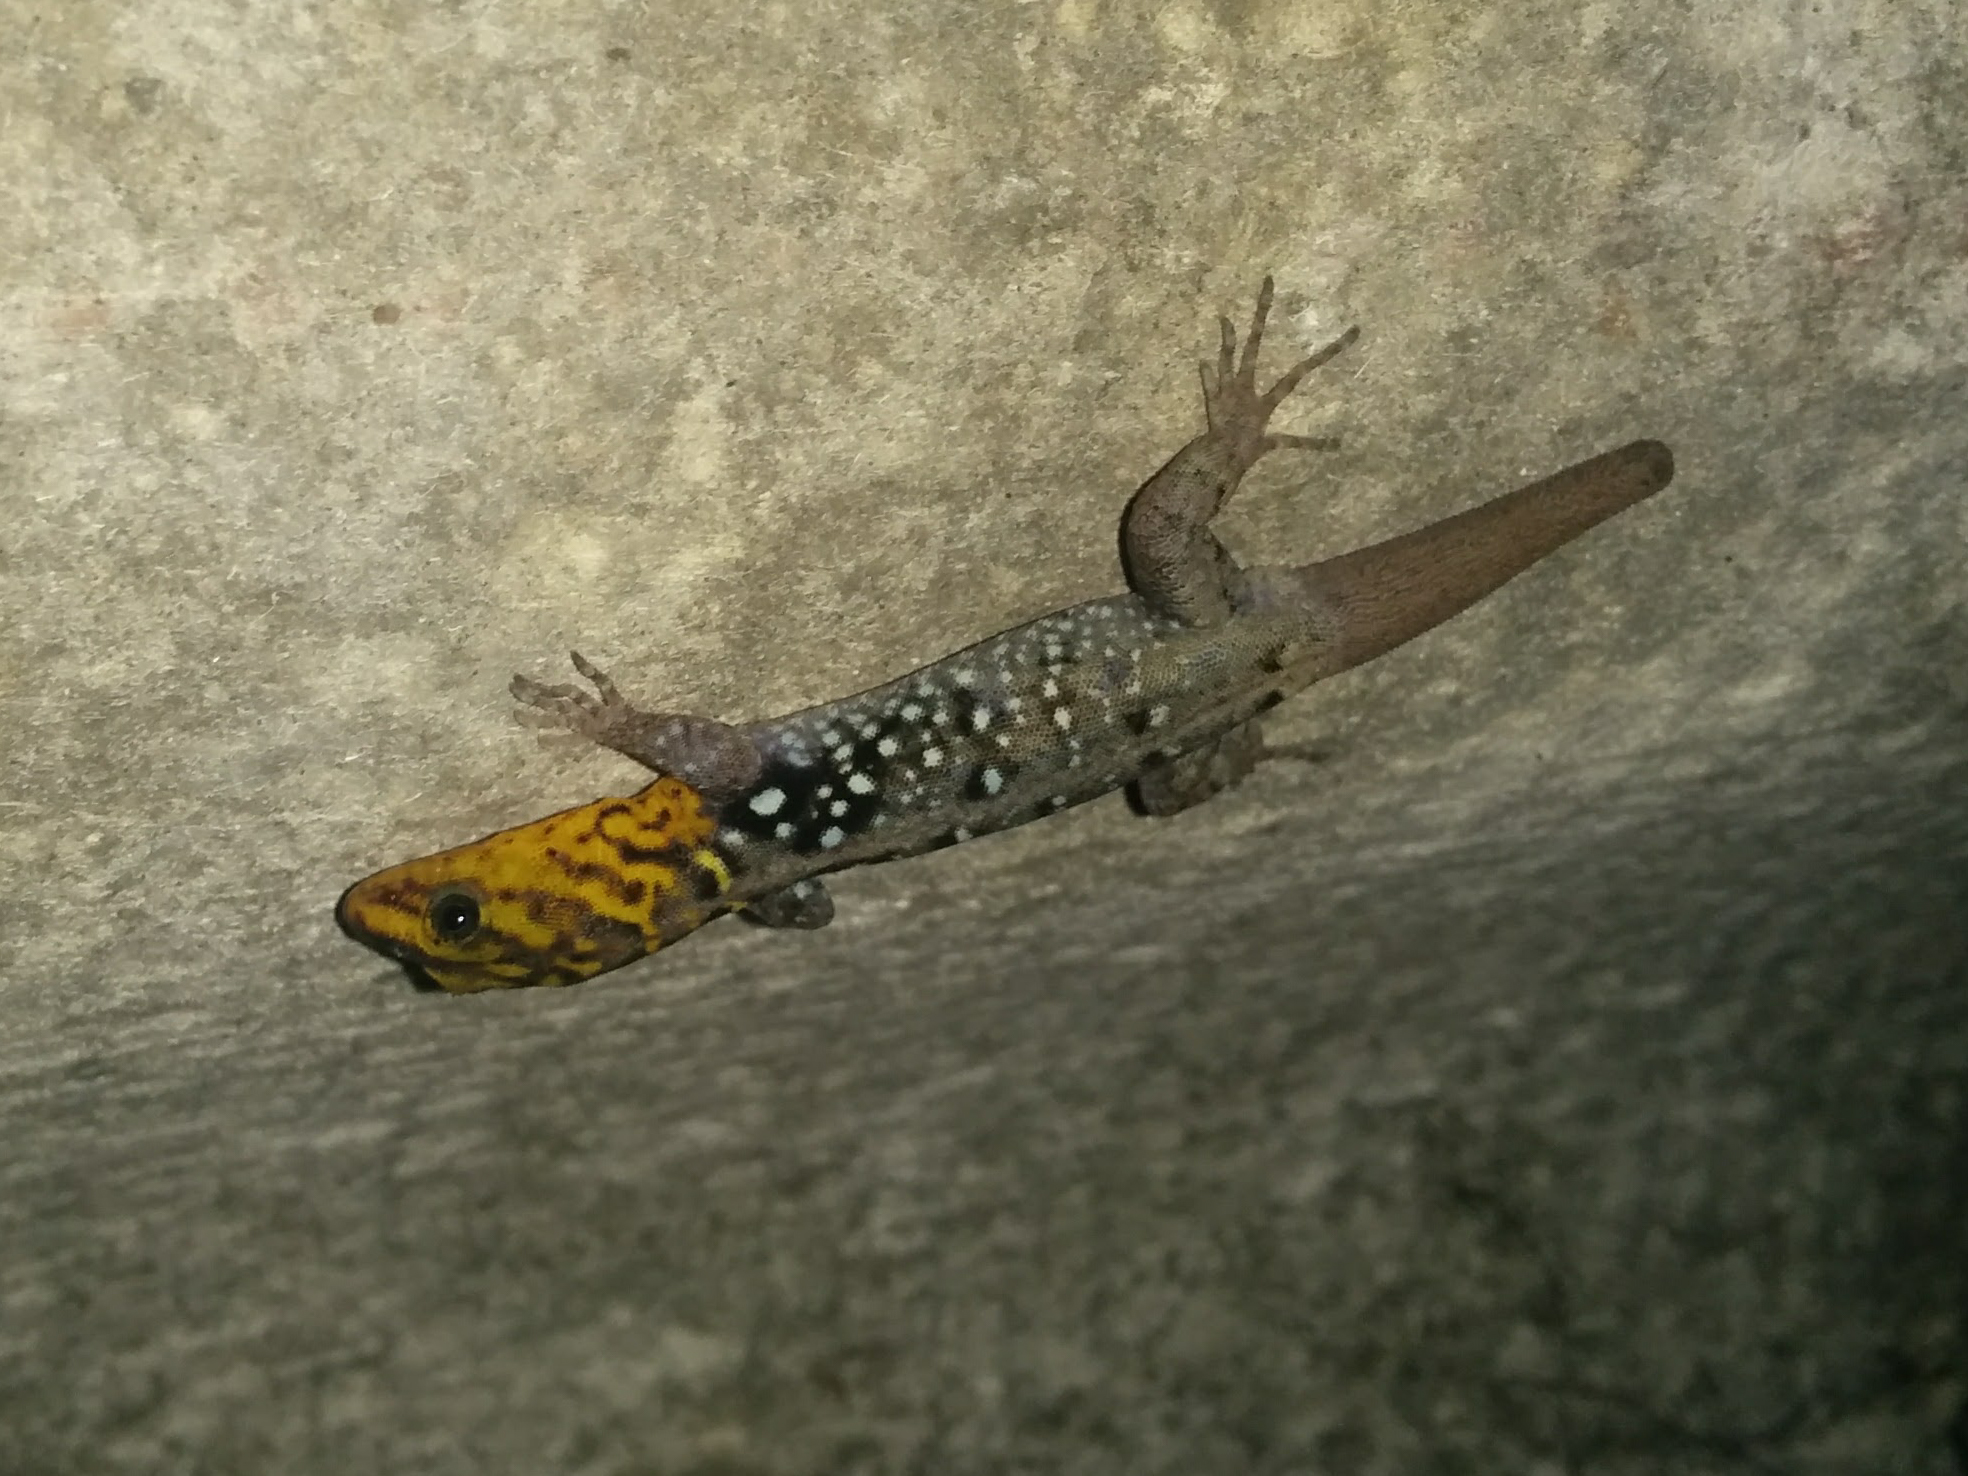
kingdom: Animalia
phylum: Chordata
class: Squamata
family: Sphaerodactylidae
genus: Gonatodes
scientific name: Gonatodes caudiscutatus
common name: Shieldhead gecko
